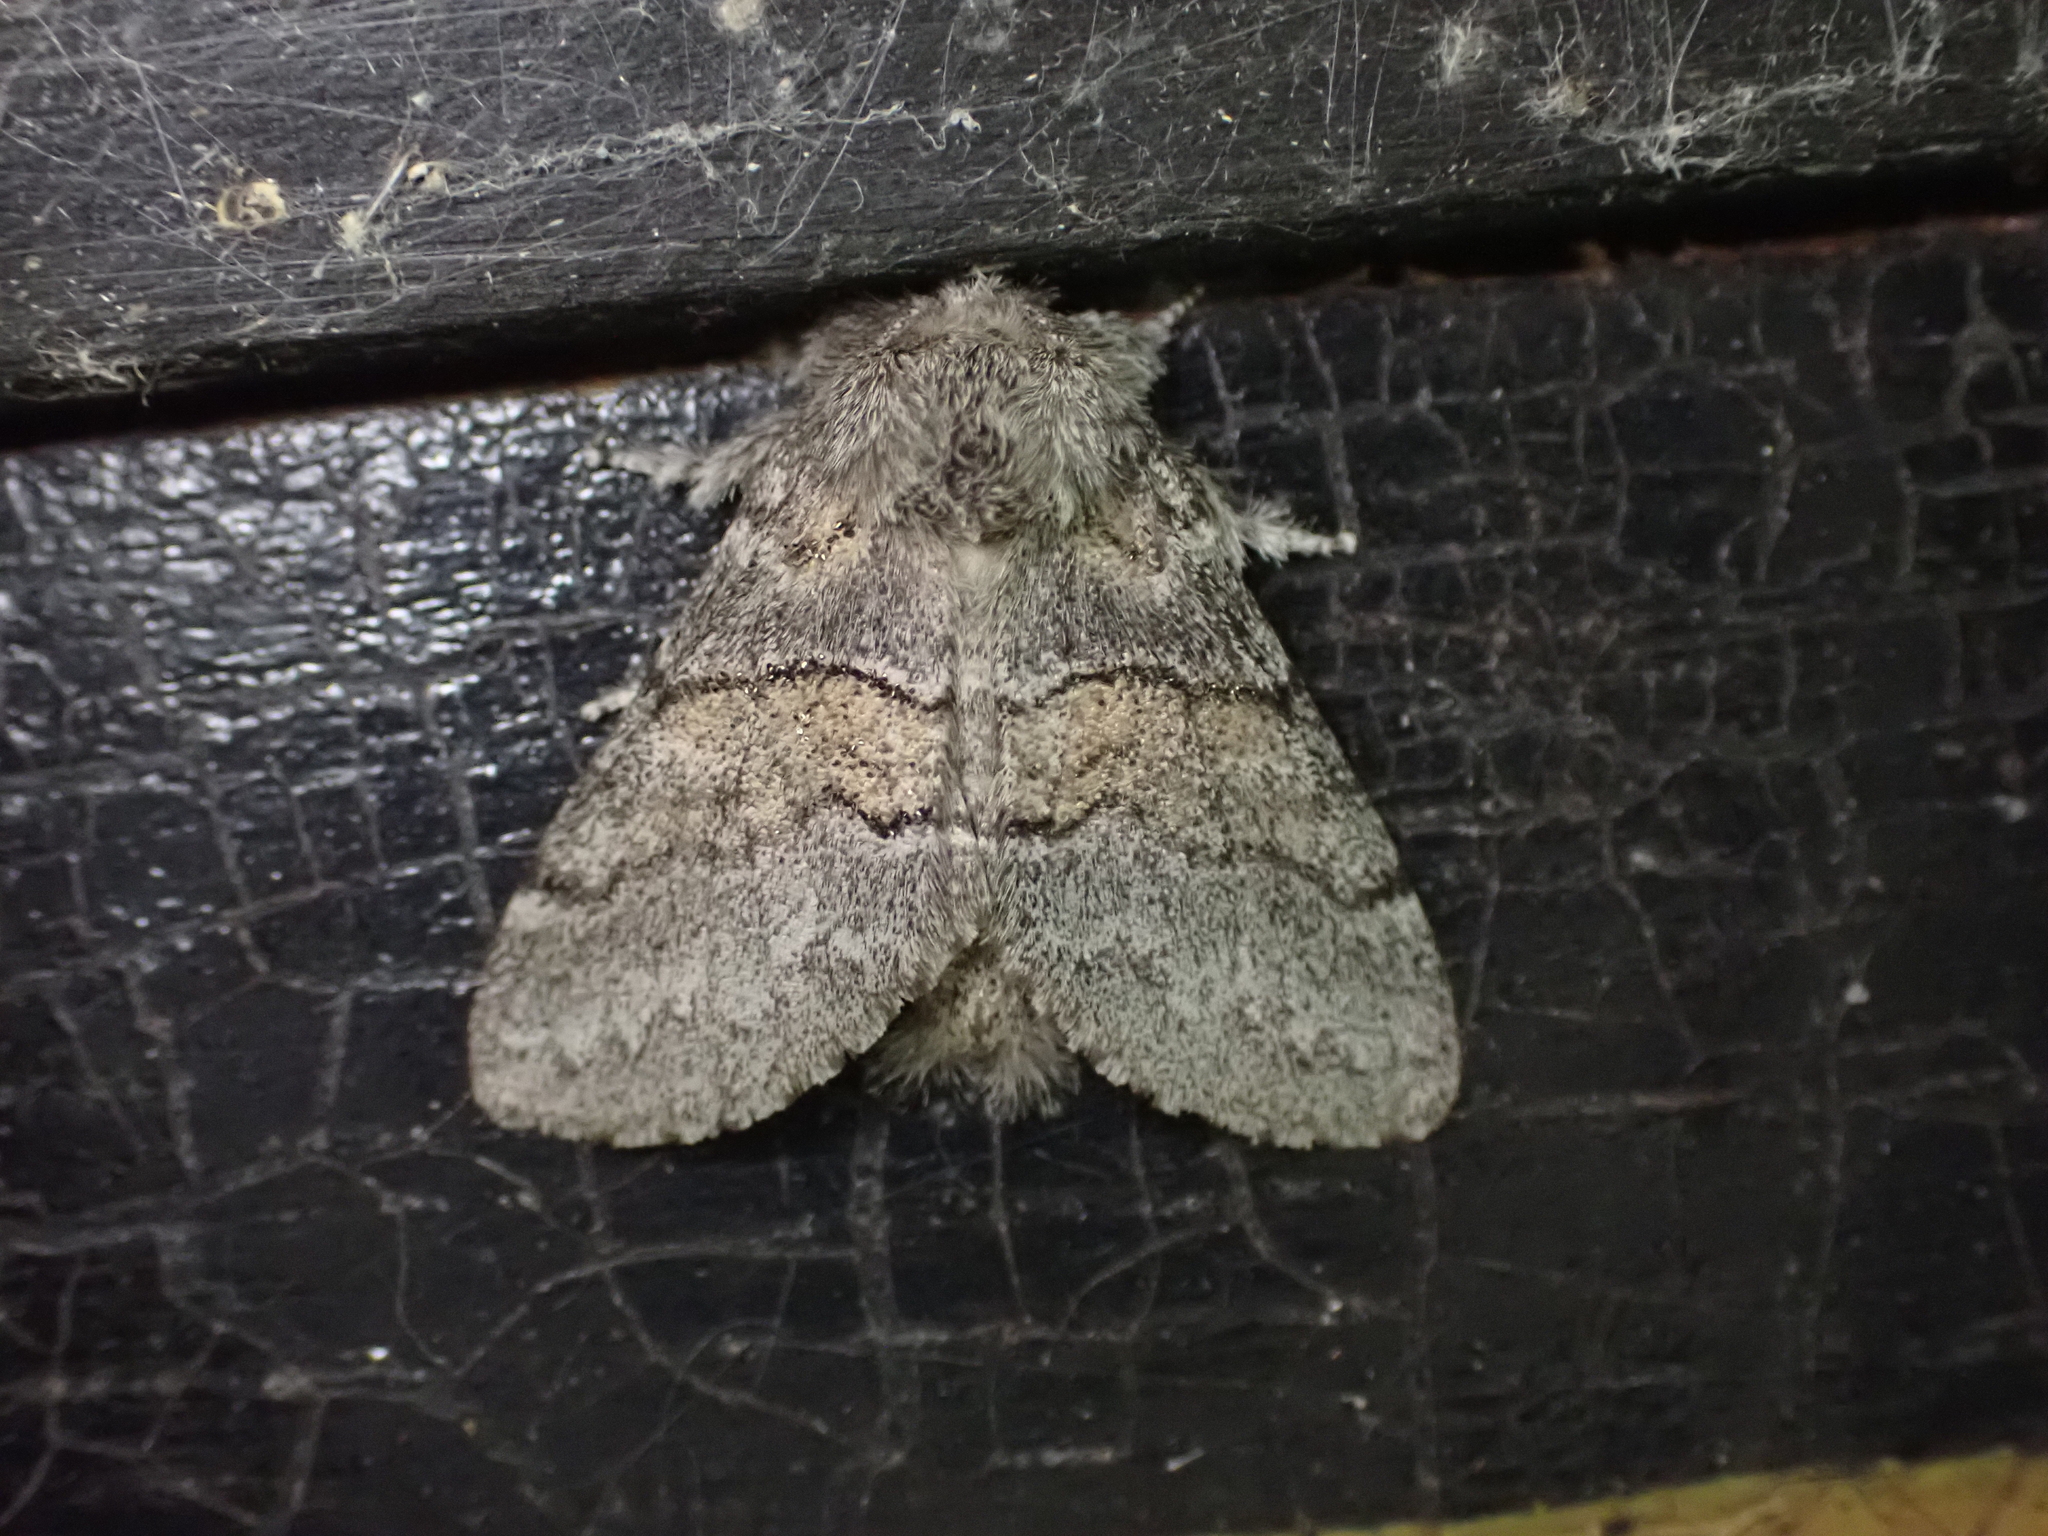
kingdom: Animalia
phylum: Arthropoda
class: Insecta
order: Lepidoptera
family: Notodontidae
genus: Gluphisia
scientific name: Gluphisia septentrionis
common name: Common gluphisia
